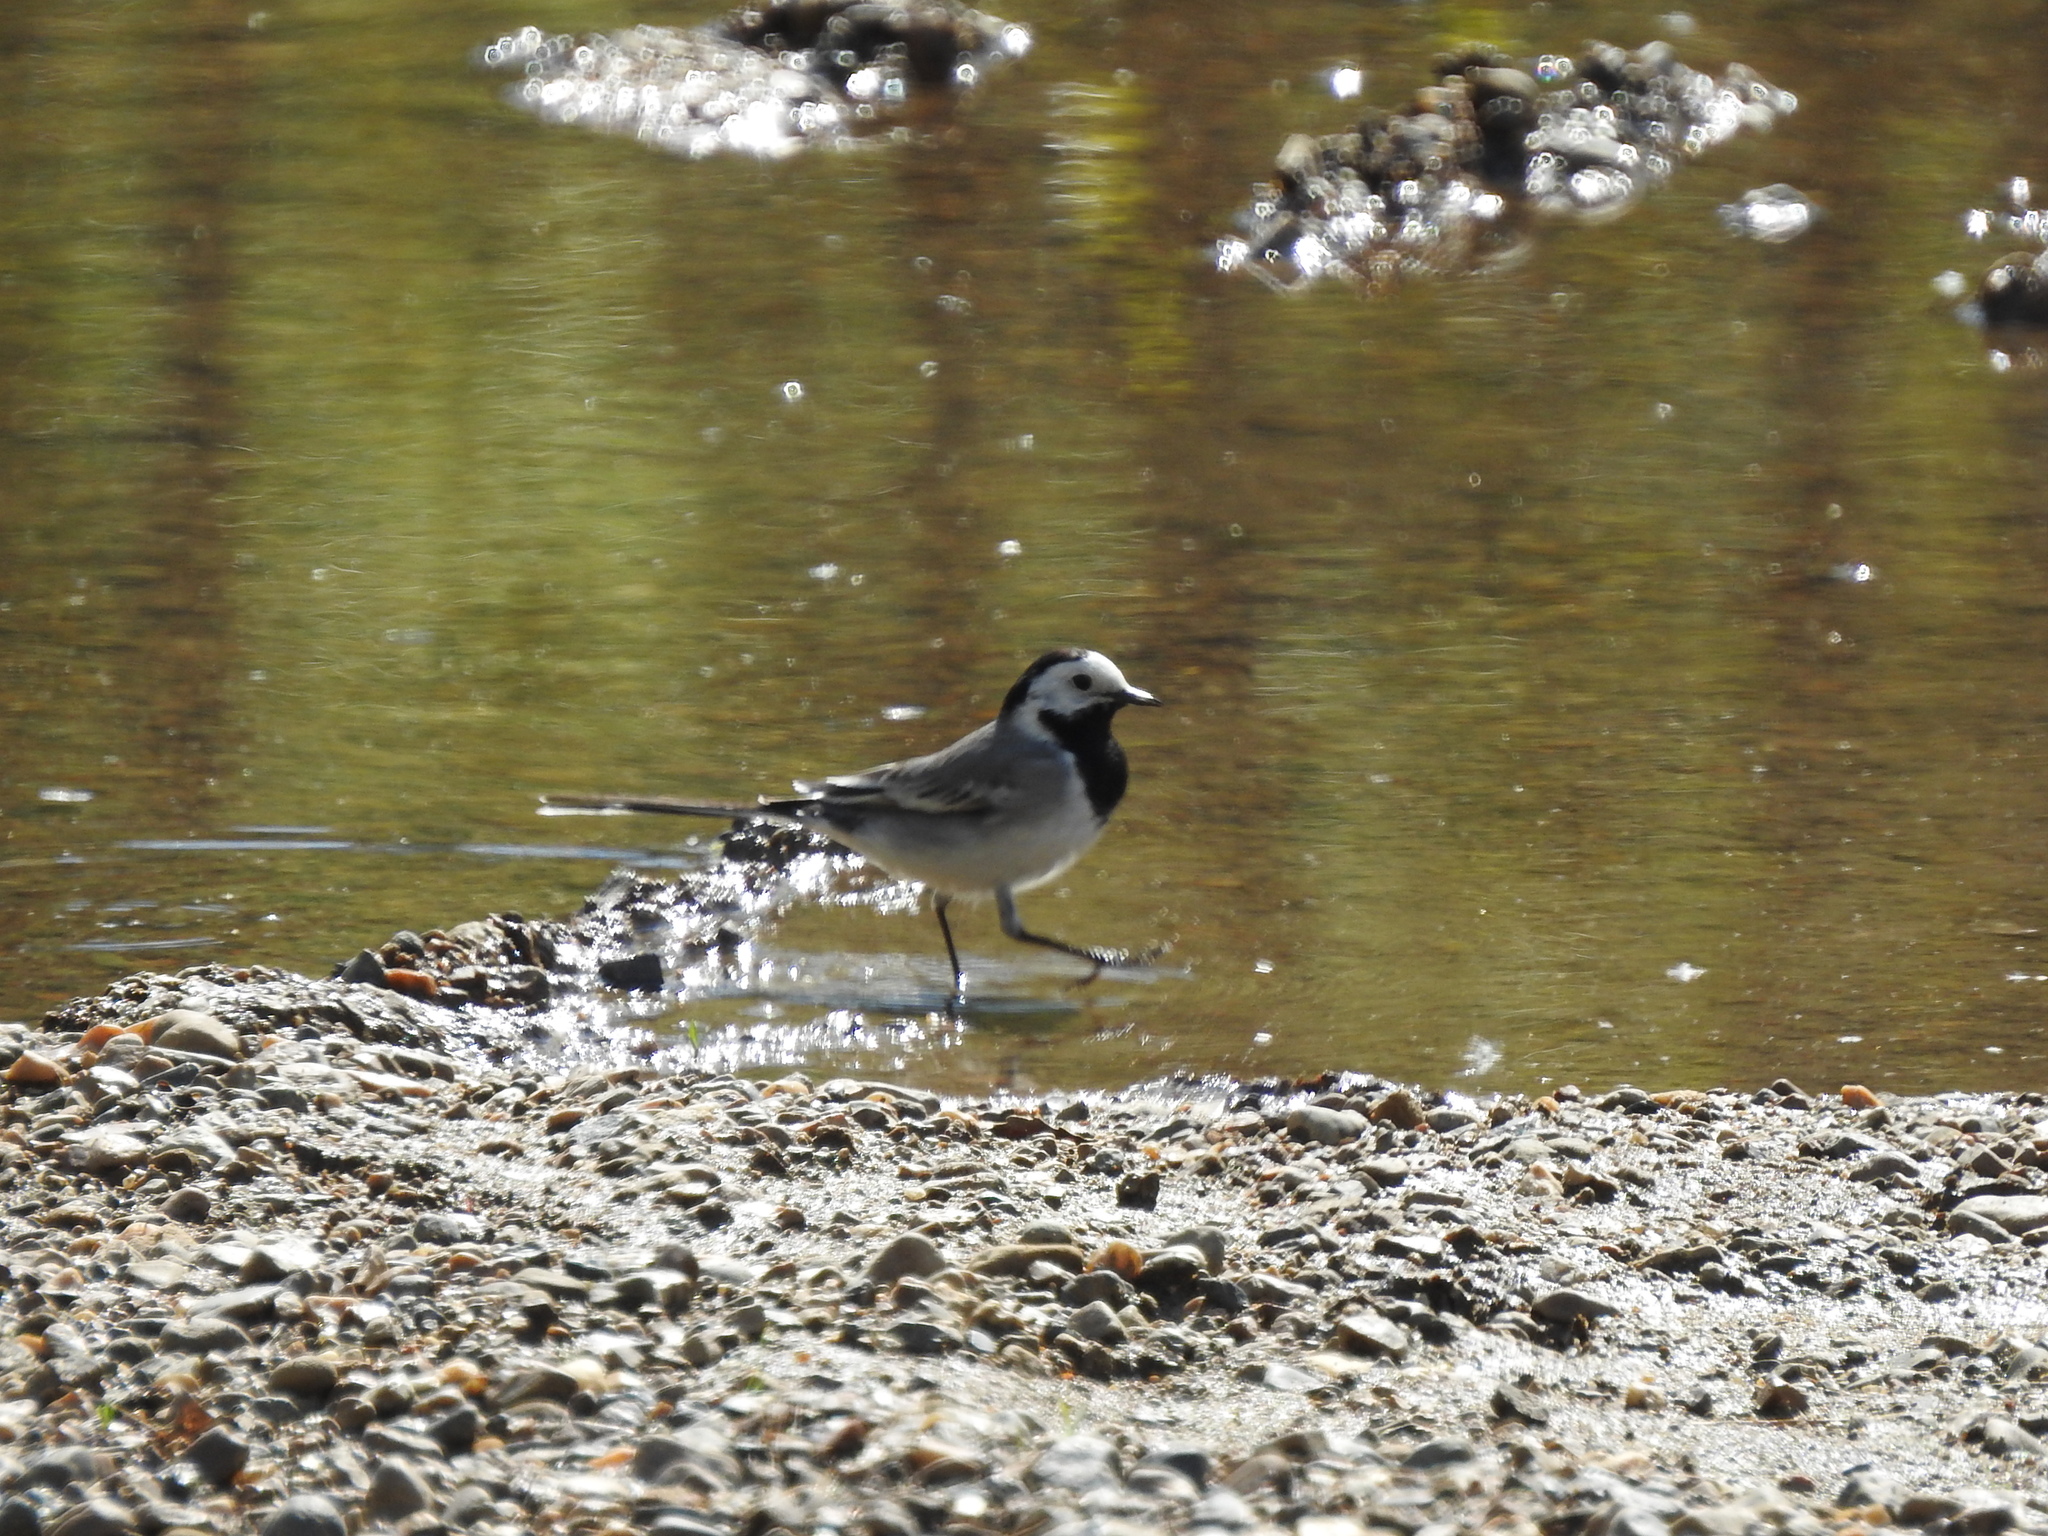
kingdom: Animalia
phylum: Chordata
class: Aves
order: Passeriformes
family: Motacillidae
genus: Motacilla
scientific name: Motacilla alba
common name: White wagtail
